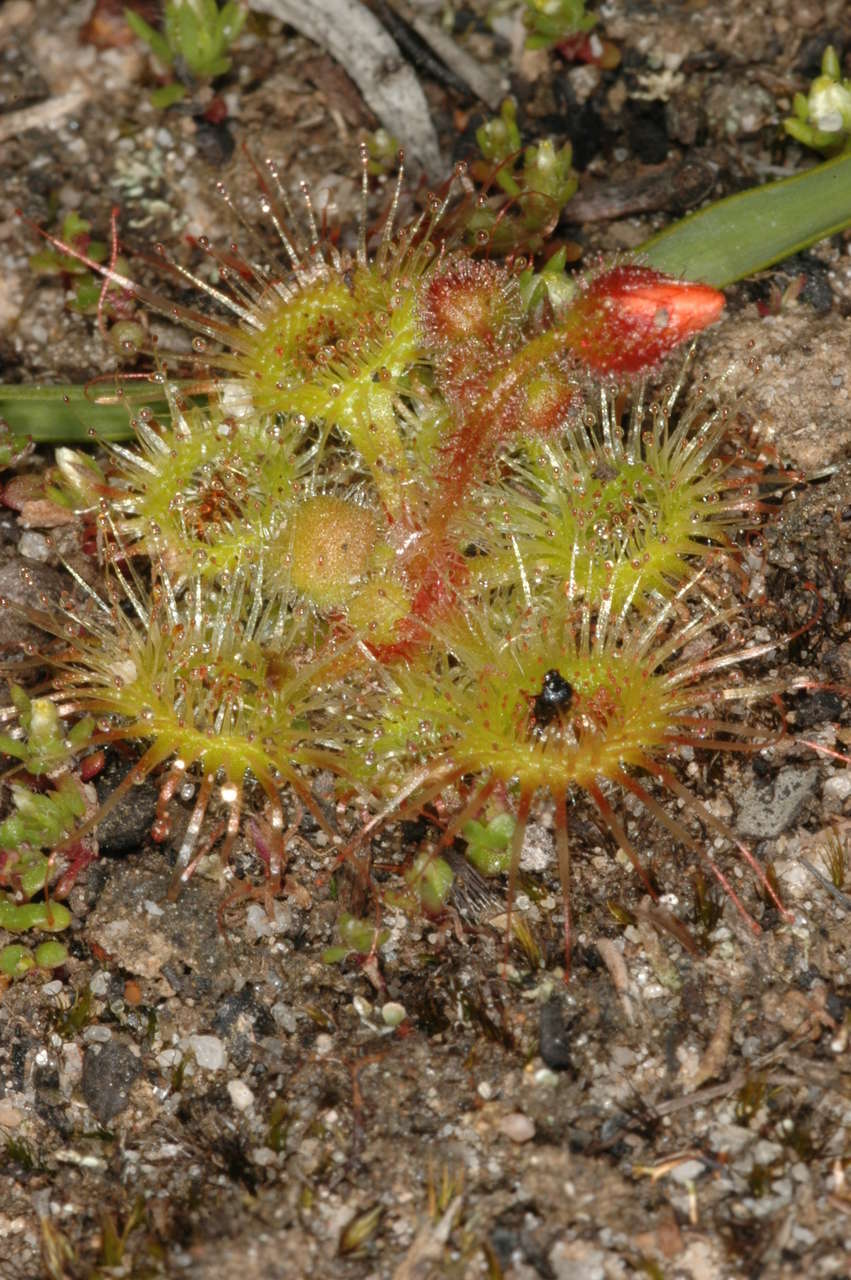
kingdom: Plantae
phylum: Tracheophyta
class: Magnoliopsida
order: Caryophyllales
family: Droseraceae
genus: Drosera
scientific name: Drosera glanduligera
